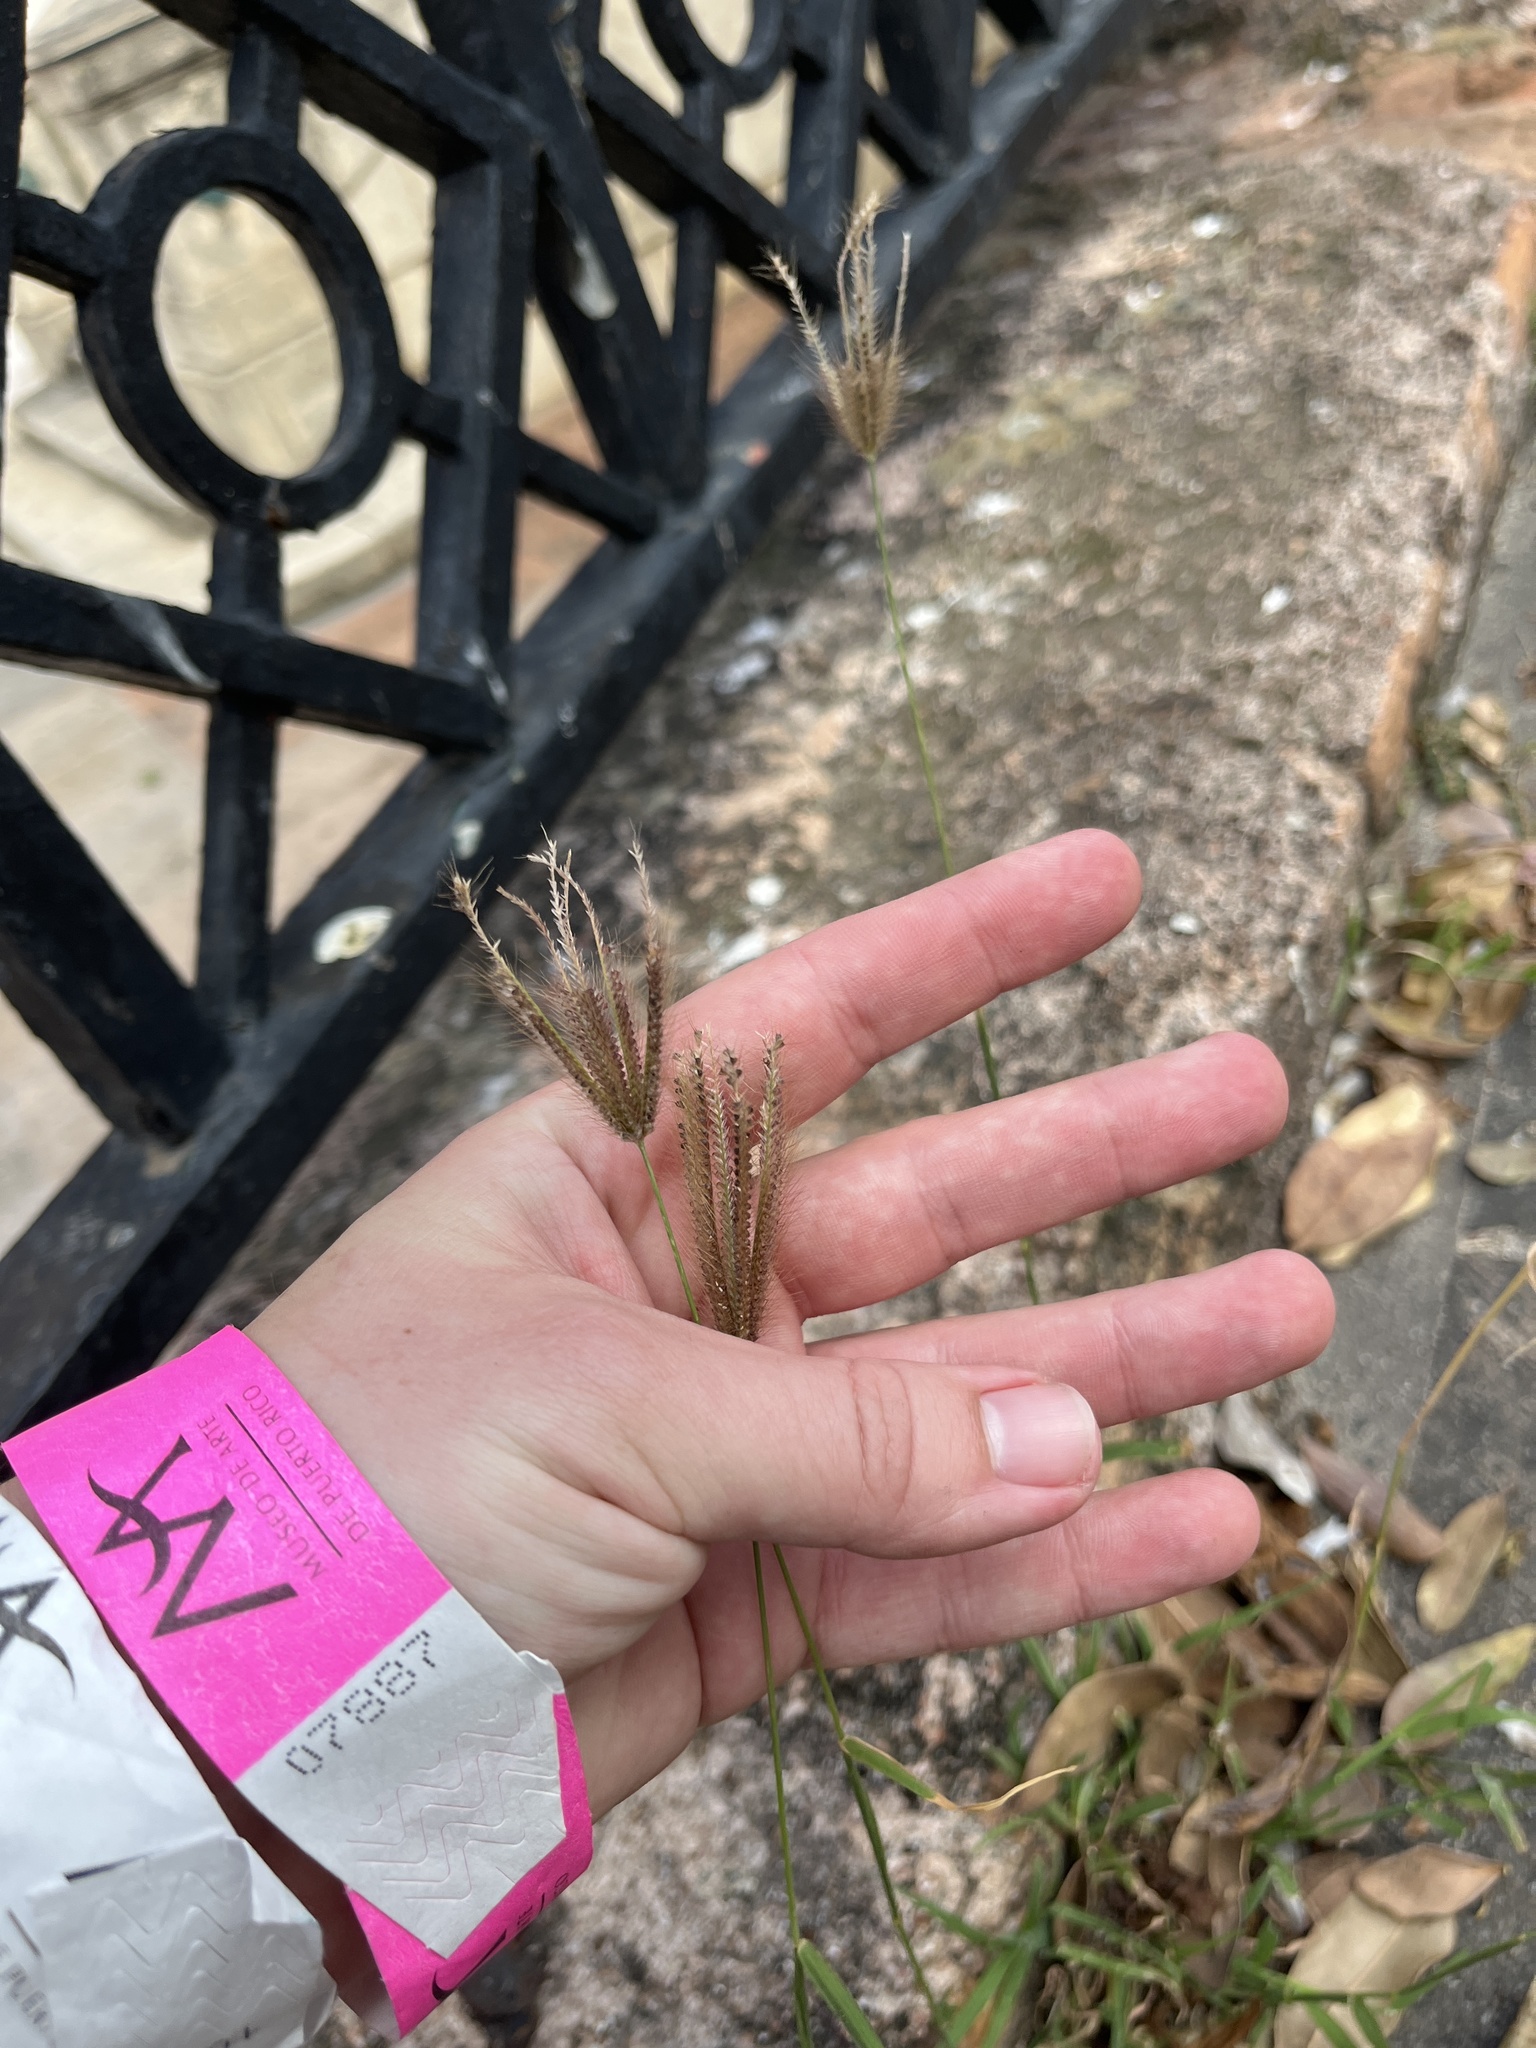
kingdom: Plantae
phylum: Tracheophyta
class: Liliopsida
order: Poales
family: Poaceae
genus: Chloris
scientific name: Chloris barbata
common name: Swollen fingergrass
